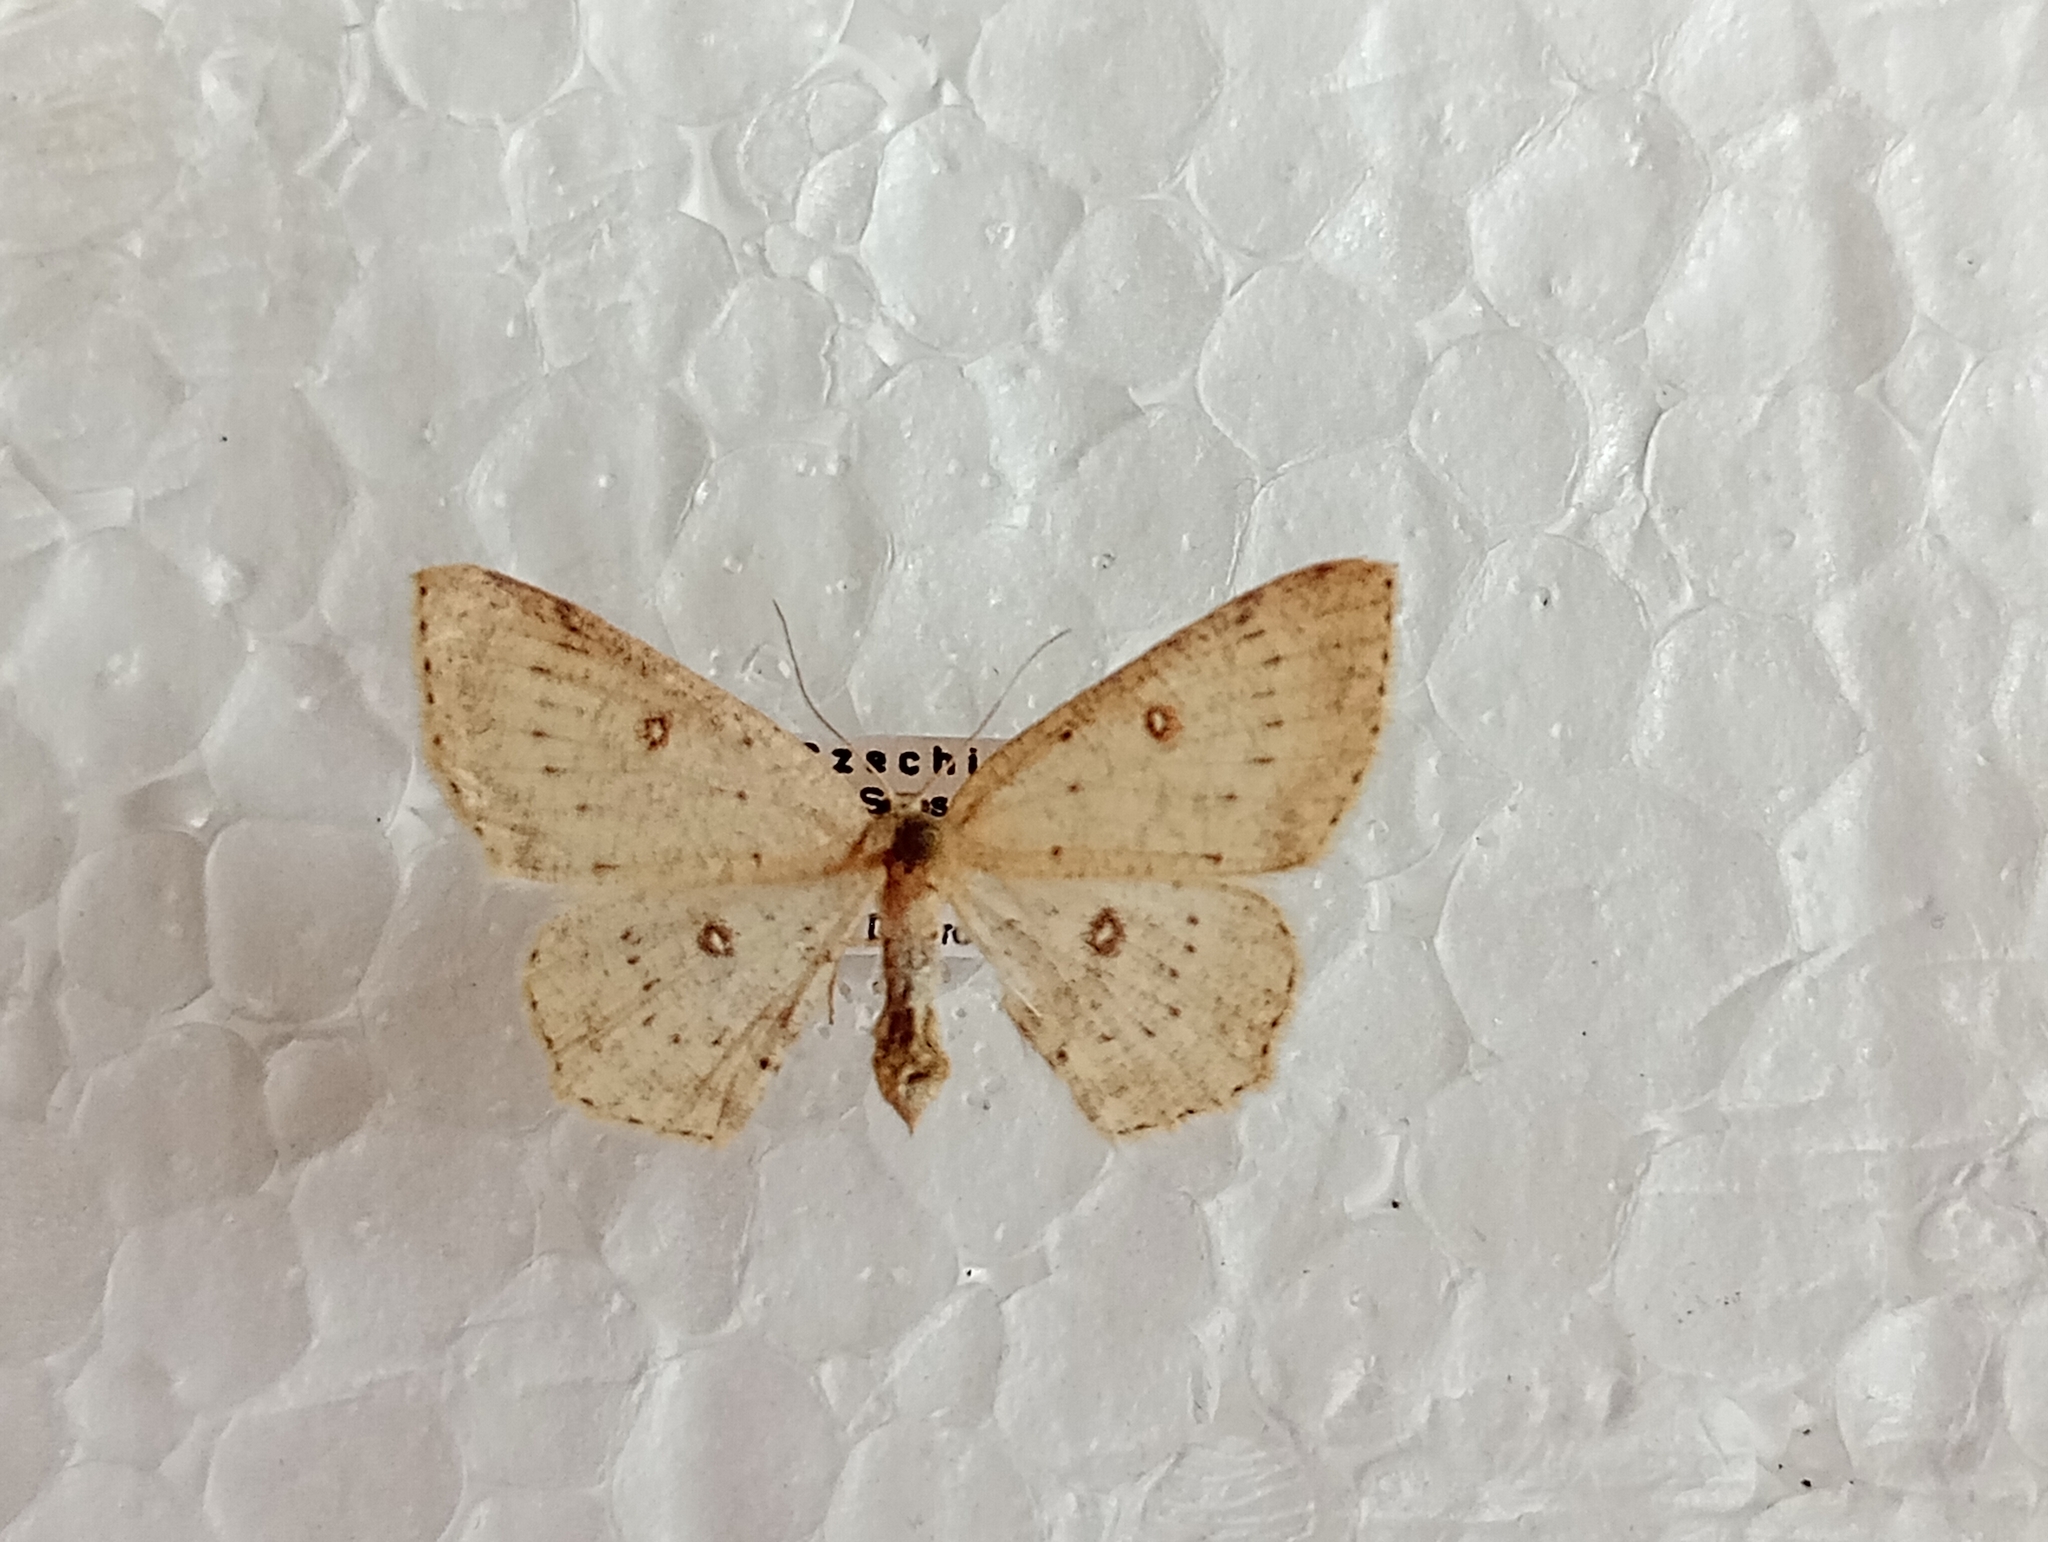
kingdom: Animalia
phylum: Arthropoda
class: Insecta
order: Lepidoptera
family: Geometridae
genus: Cyclophora
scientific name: Cyclophora albipunctata
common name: Birch mocha
